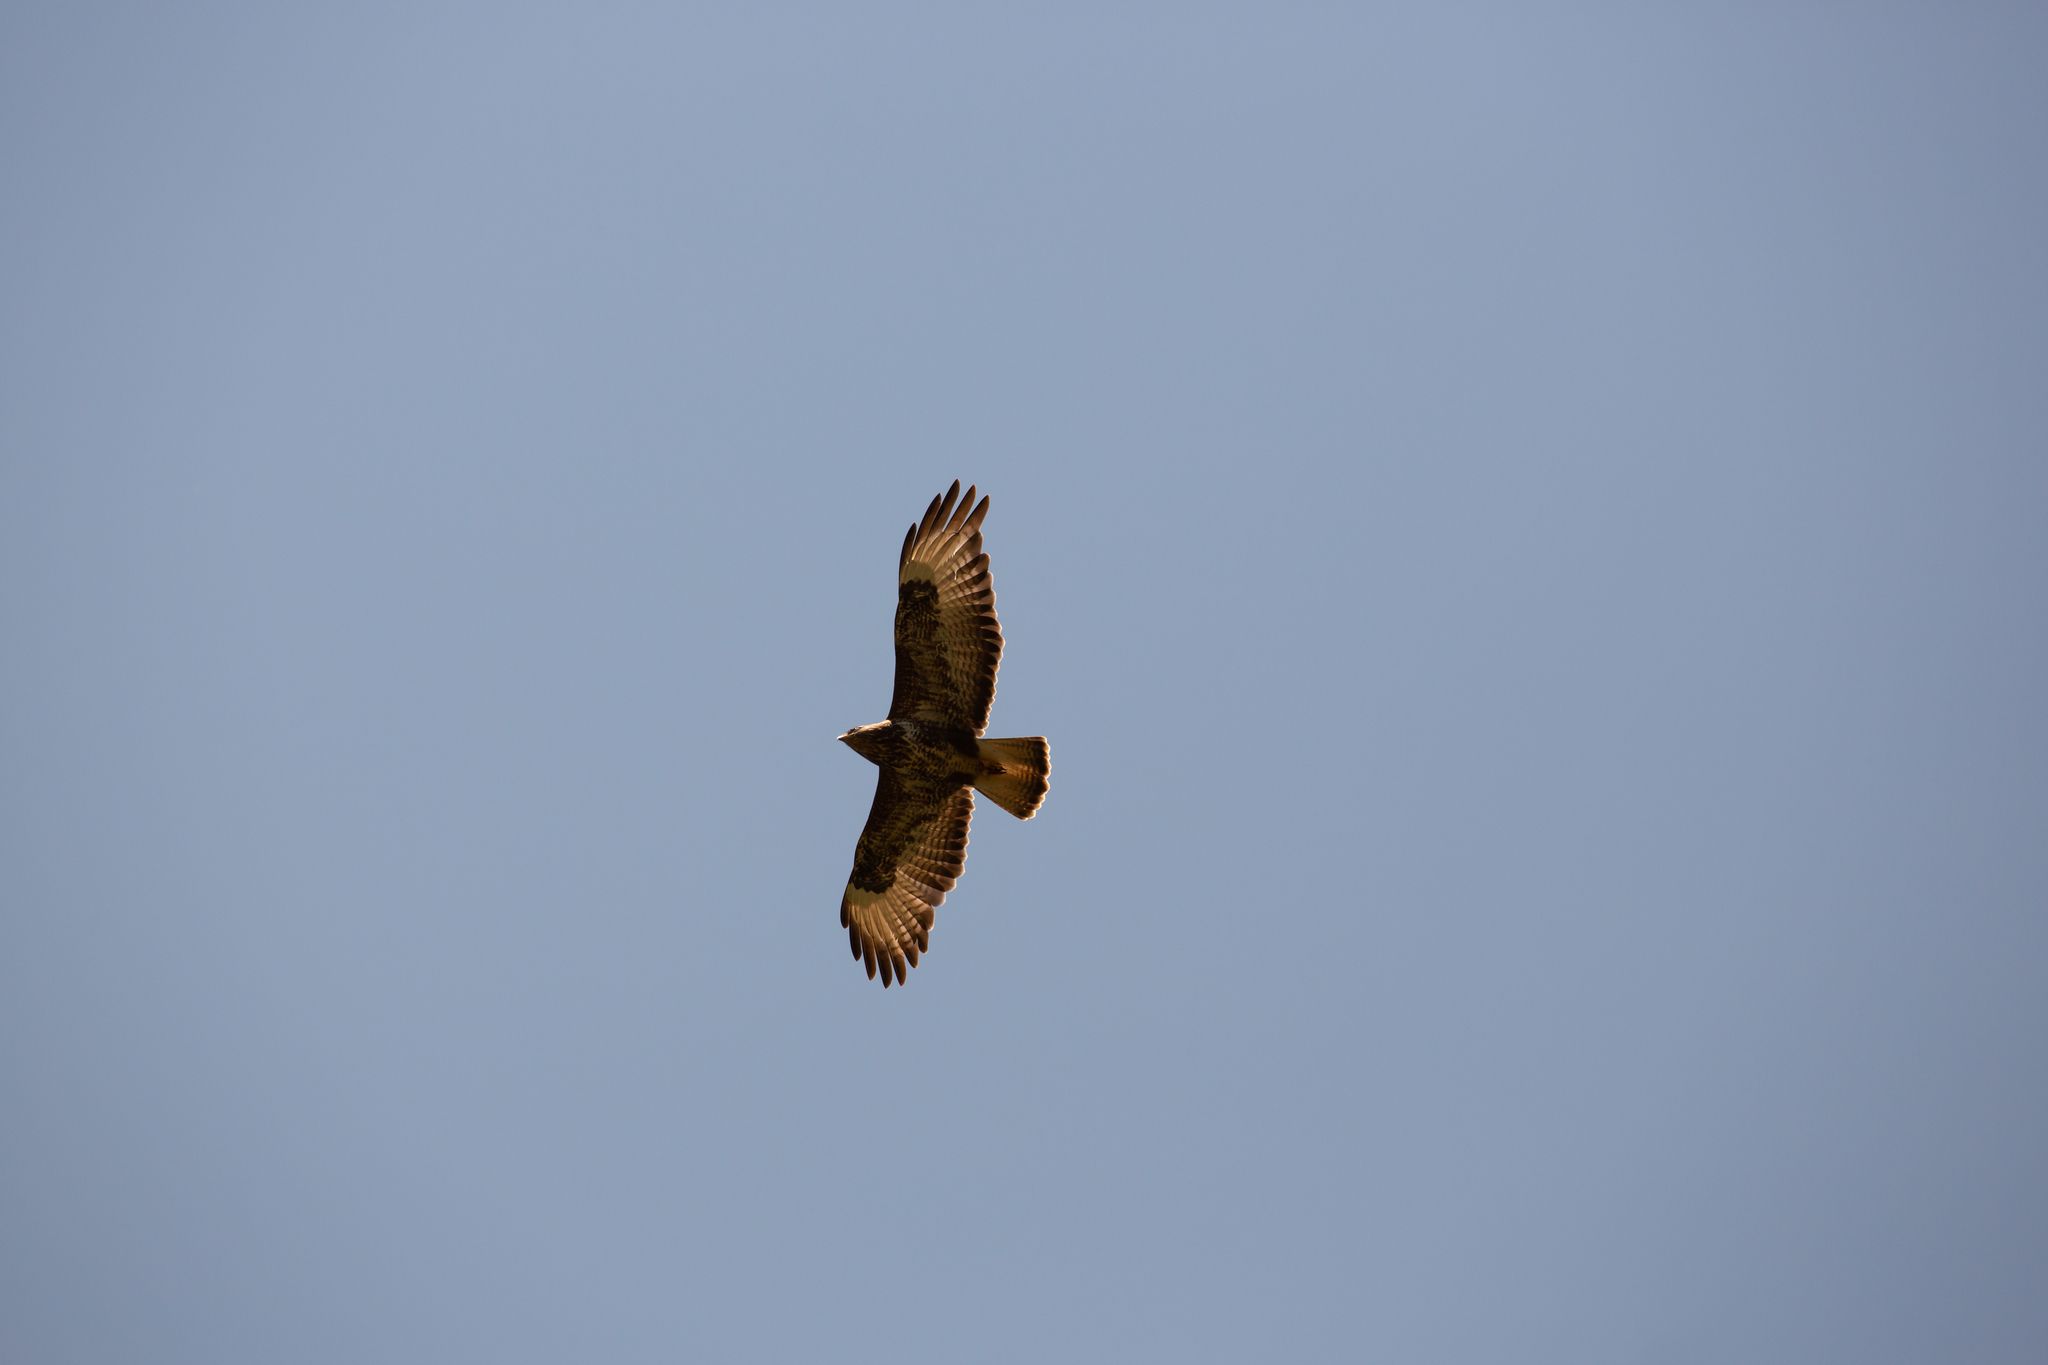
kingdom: Animalia
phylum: Chordata
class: Aves
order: Accipitriformes
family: Accipitridae
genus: Buteo
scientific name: Buteo buteo
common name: Common buzzard
